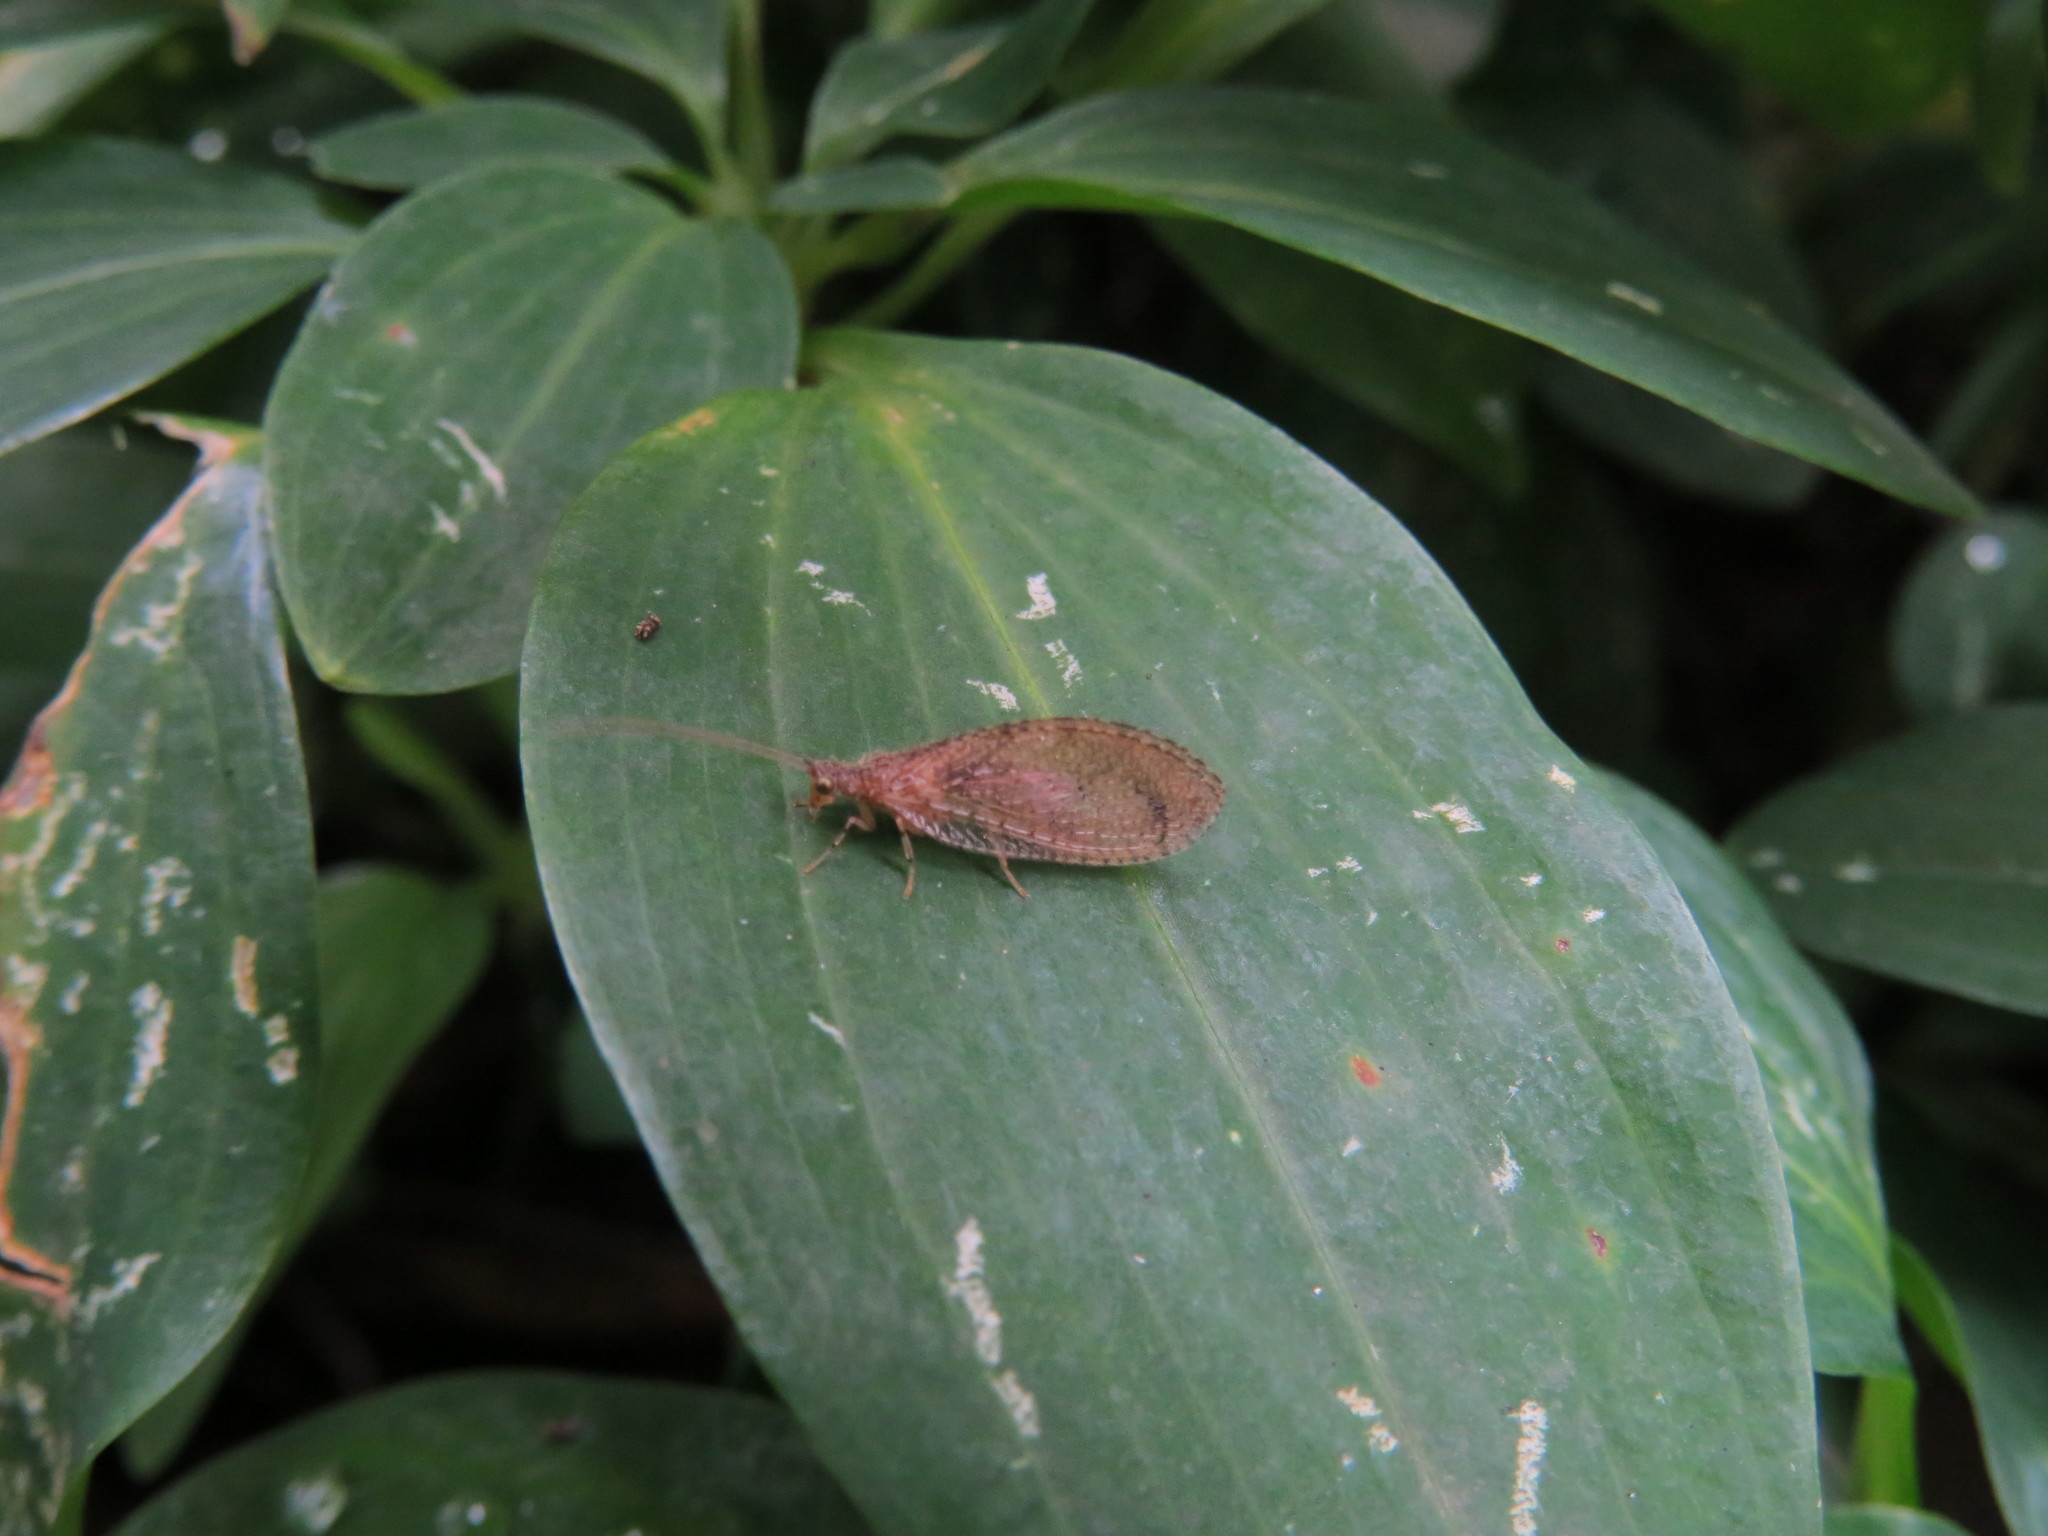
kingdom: Animalia
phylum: Arthropoda
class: Insecta
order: Neuroptera
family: Hemerobiidae
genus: Nusalala
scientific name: Nusalala tessellata
